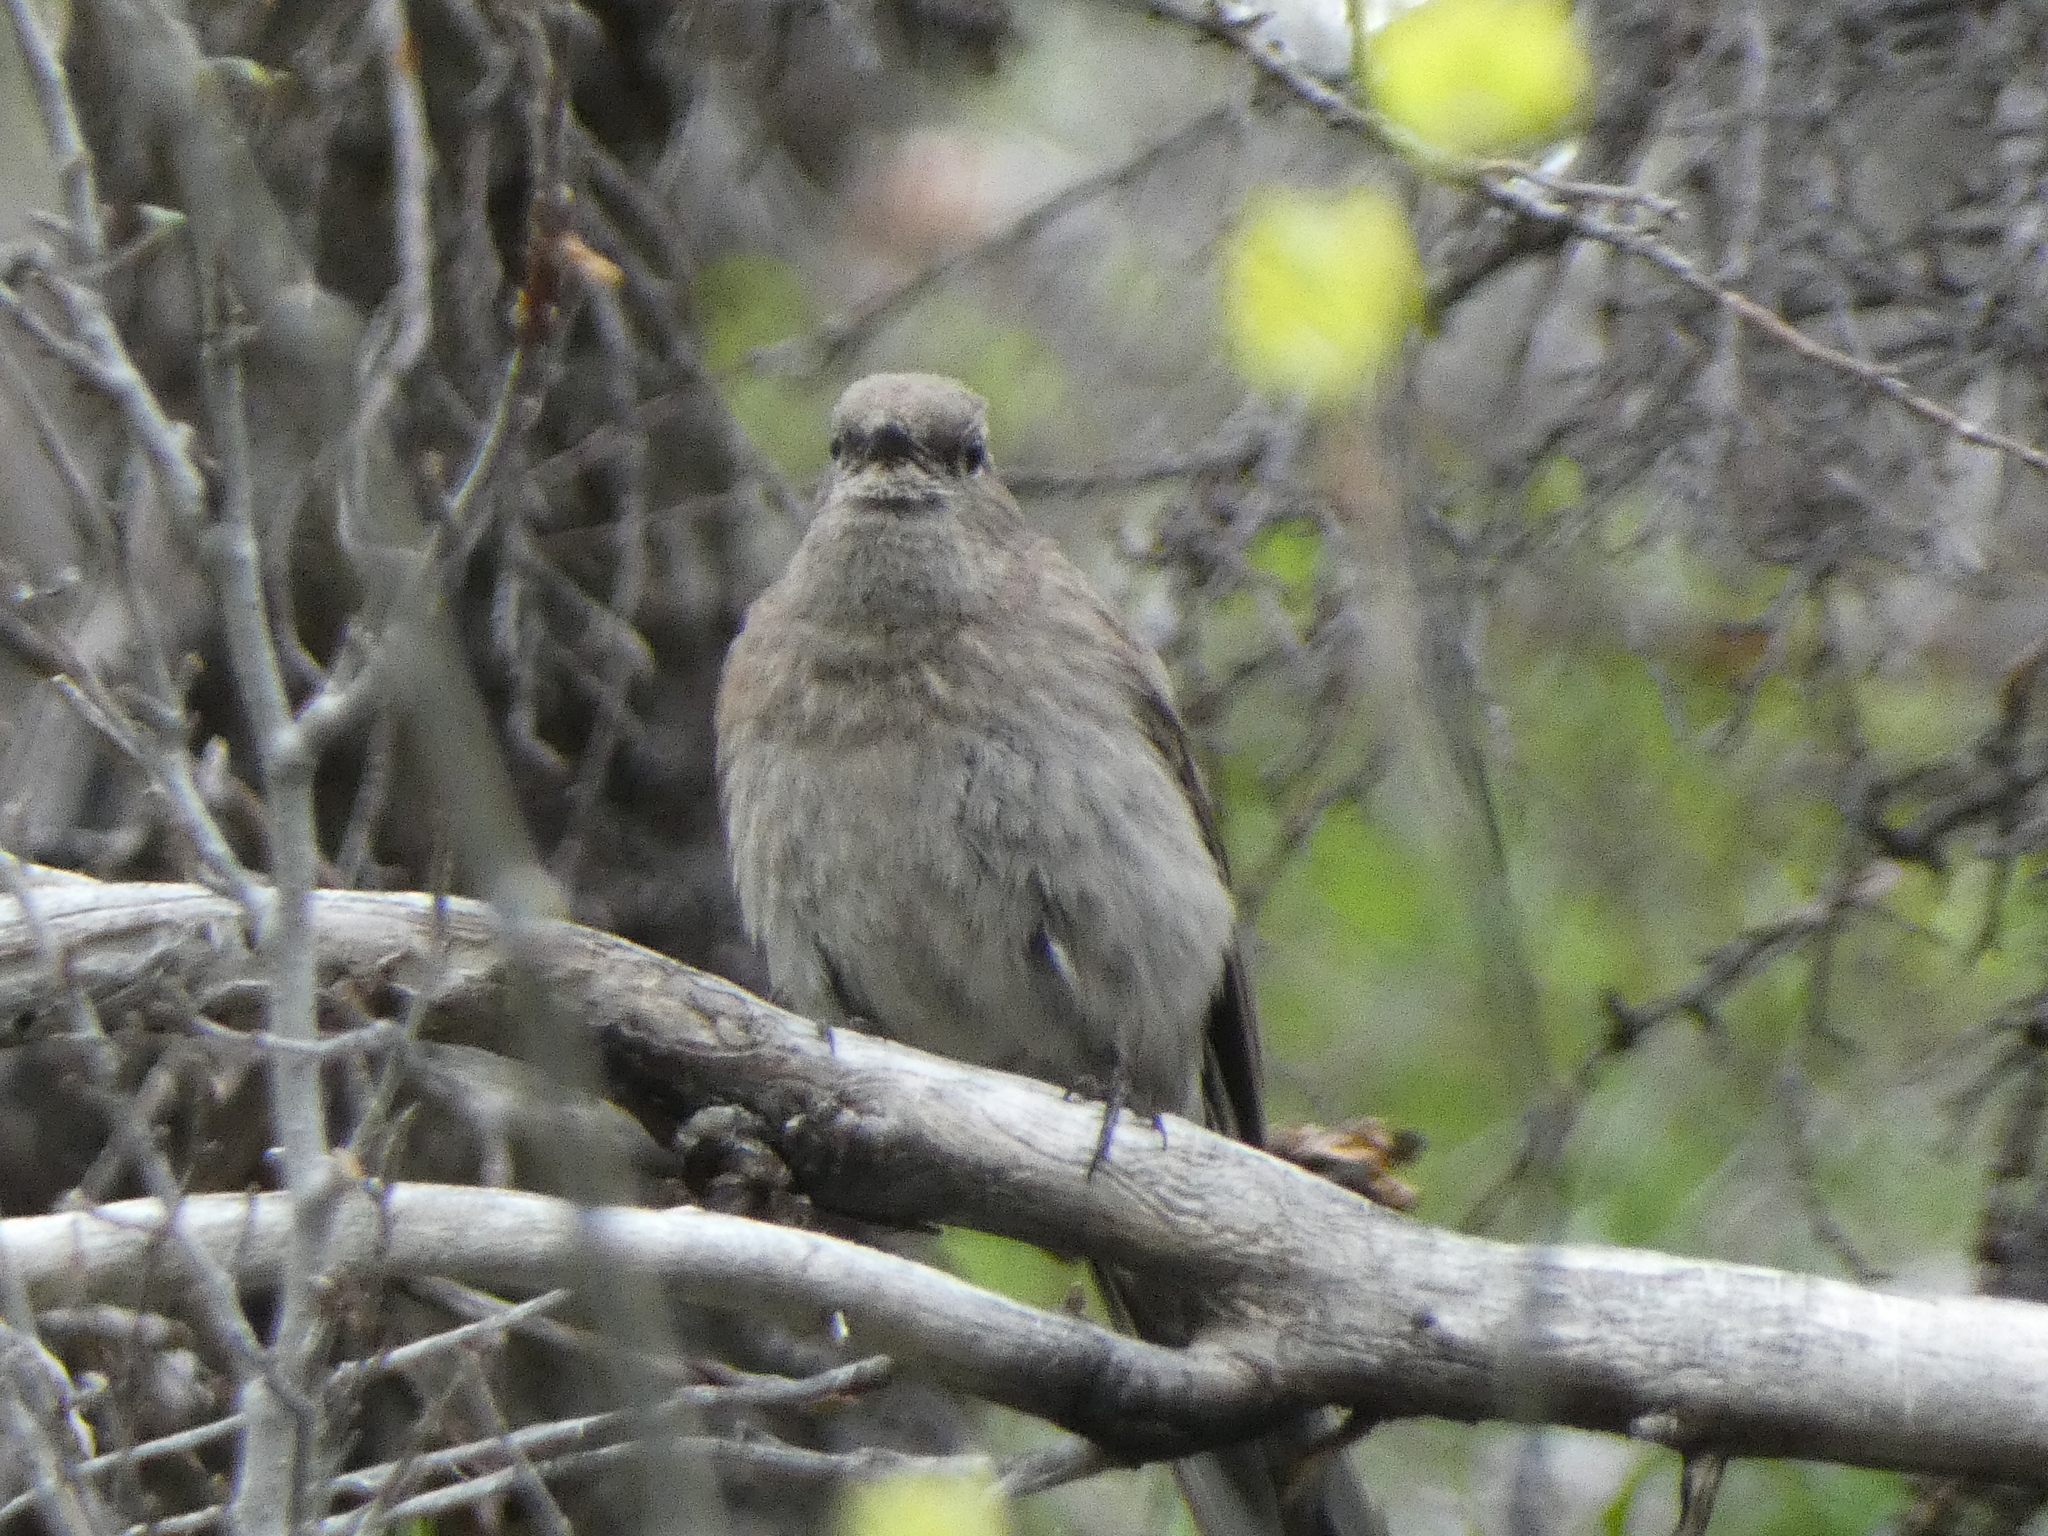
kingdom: Animalia
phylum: Chordata
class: Aves
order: Passeriformes
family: Turdidae
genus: Myadestes
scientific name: Myadestes townsendi
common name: Townsend's solitaire
